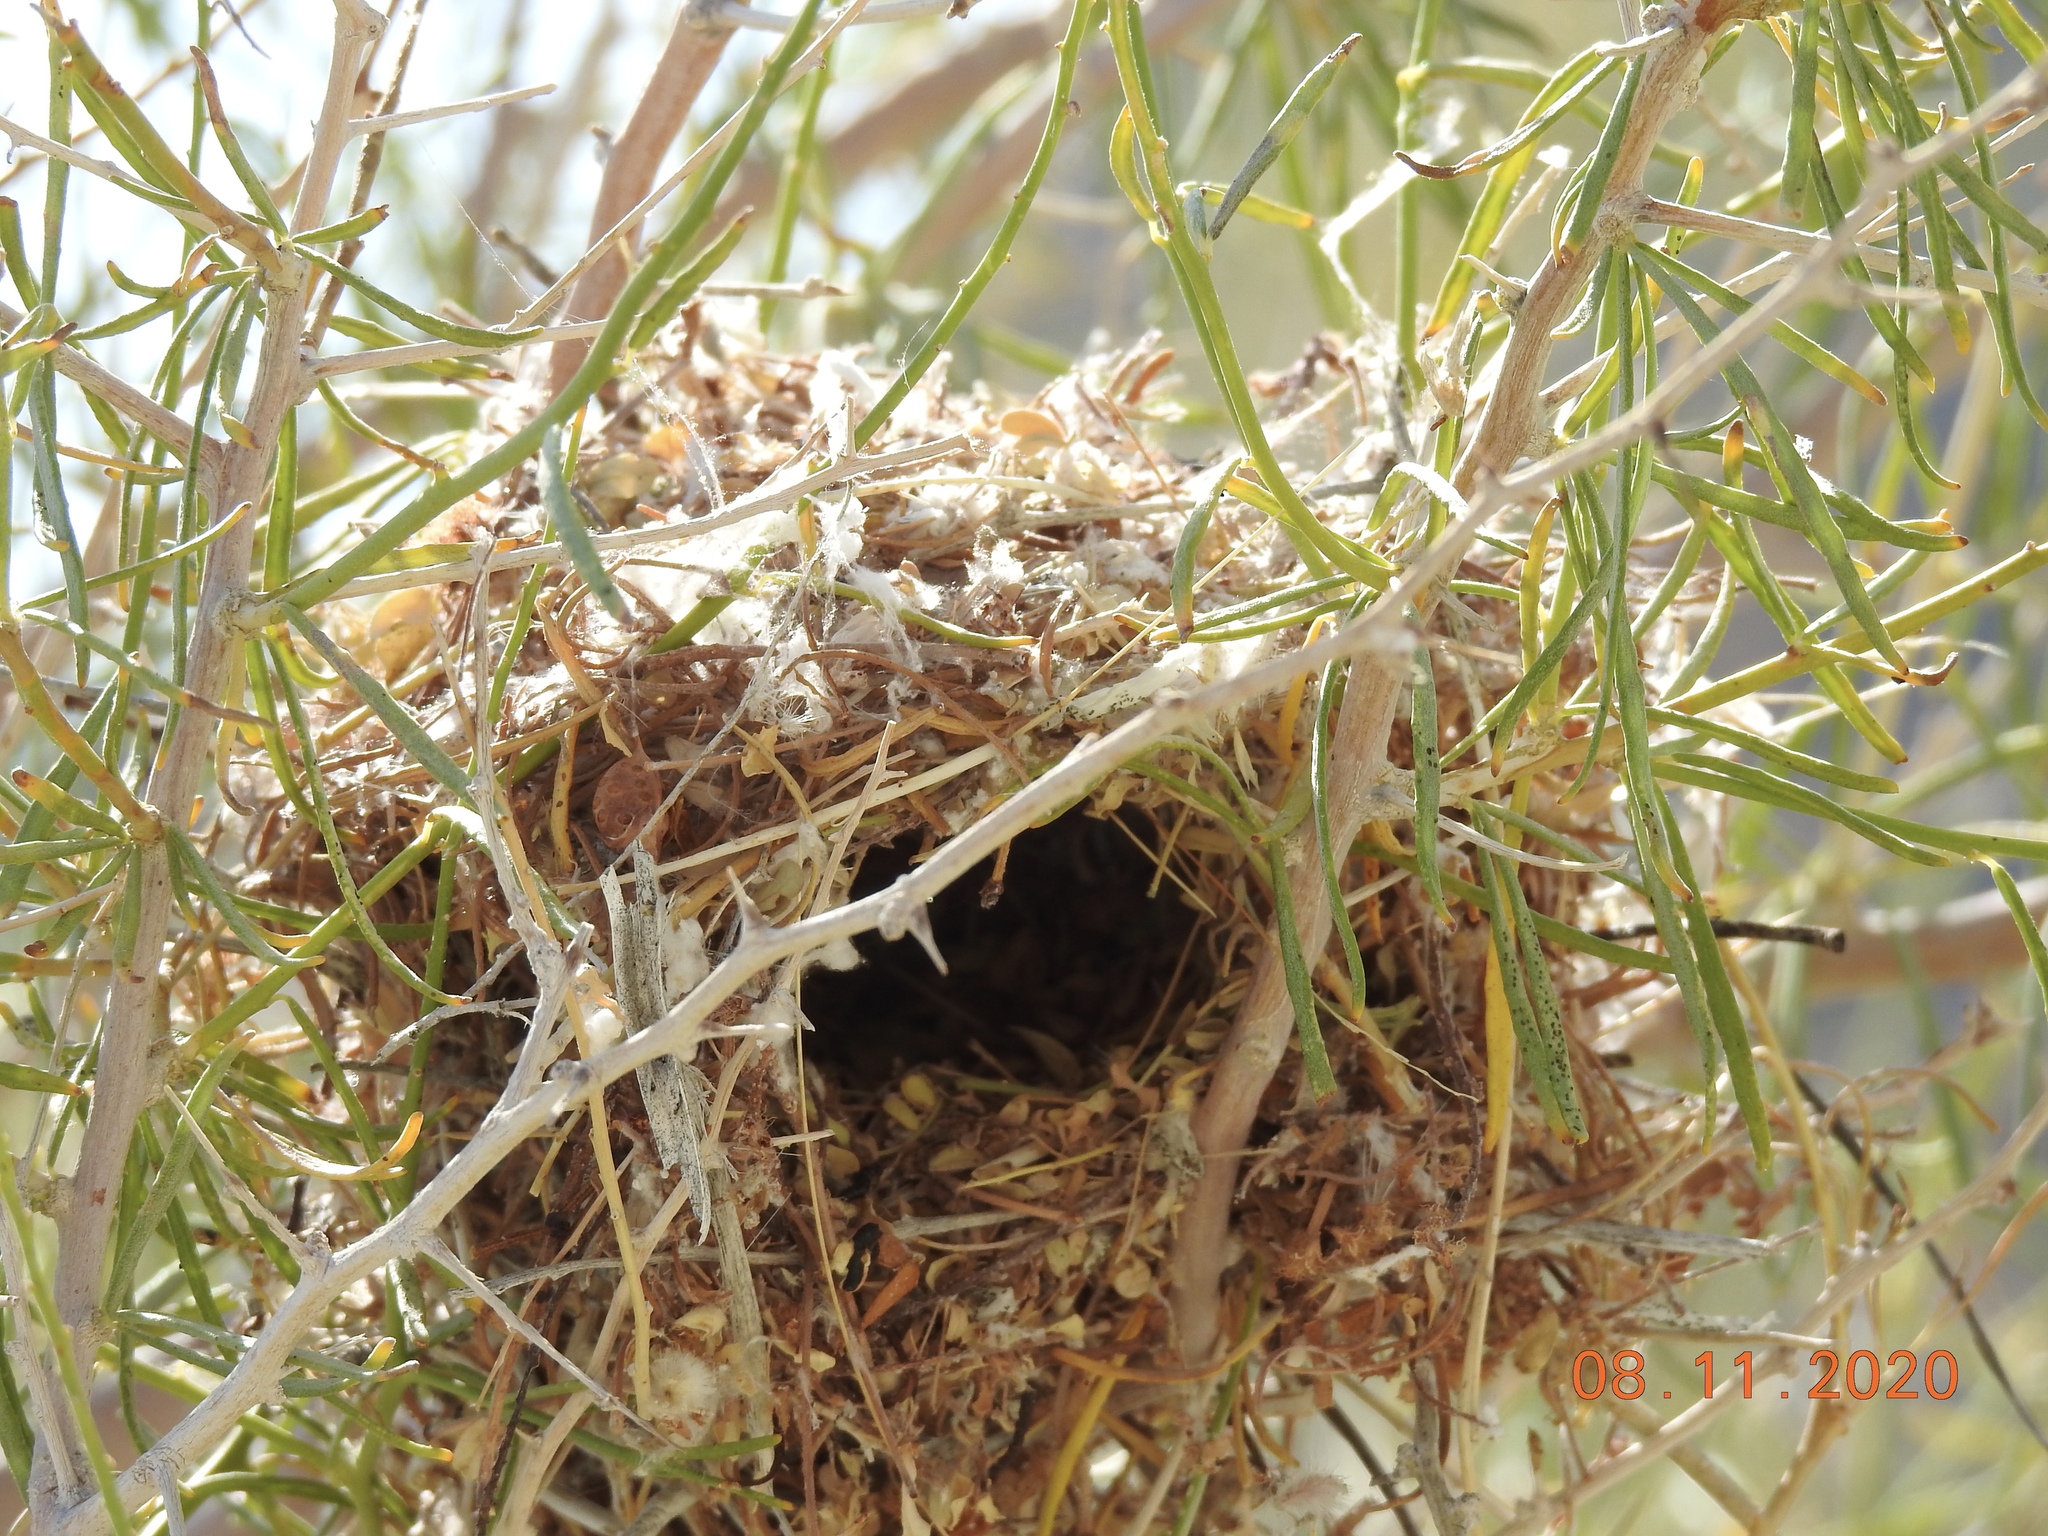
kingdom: Animalia
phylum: Chordata
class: Aves
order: Passeriformes
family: Remizidae
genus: Auriparus
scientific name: Auriparus flaviceps
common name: Verdin
